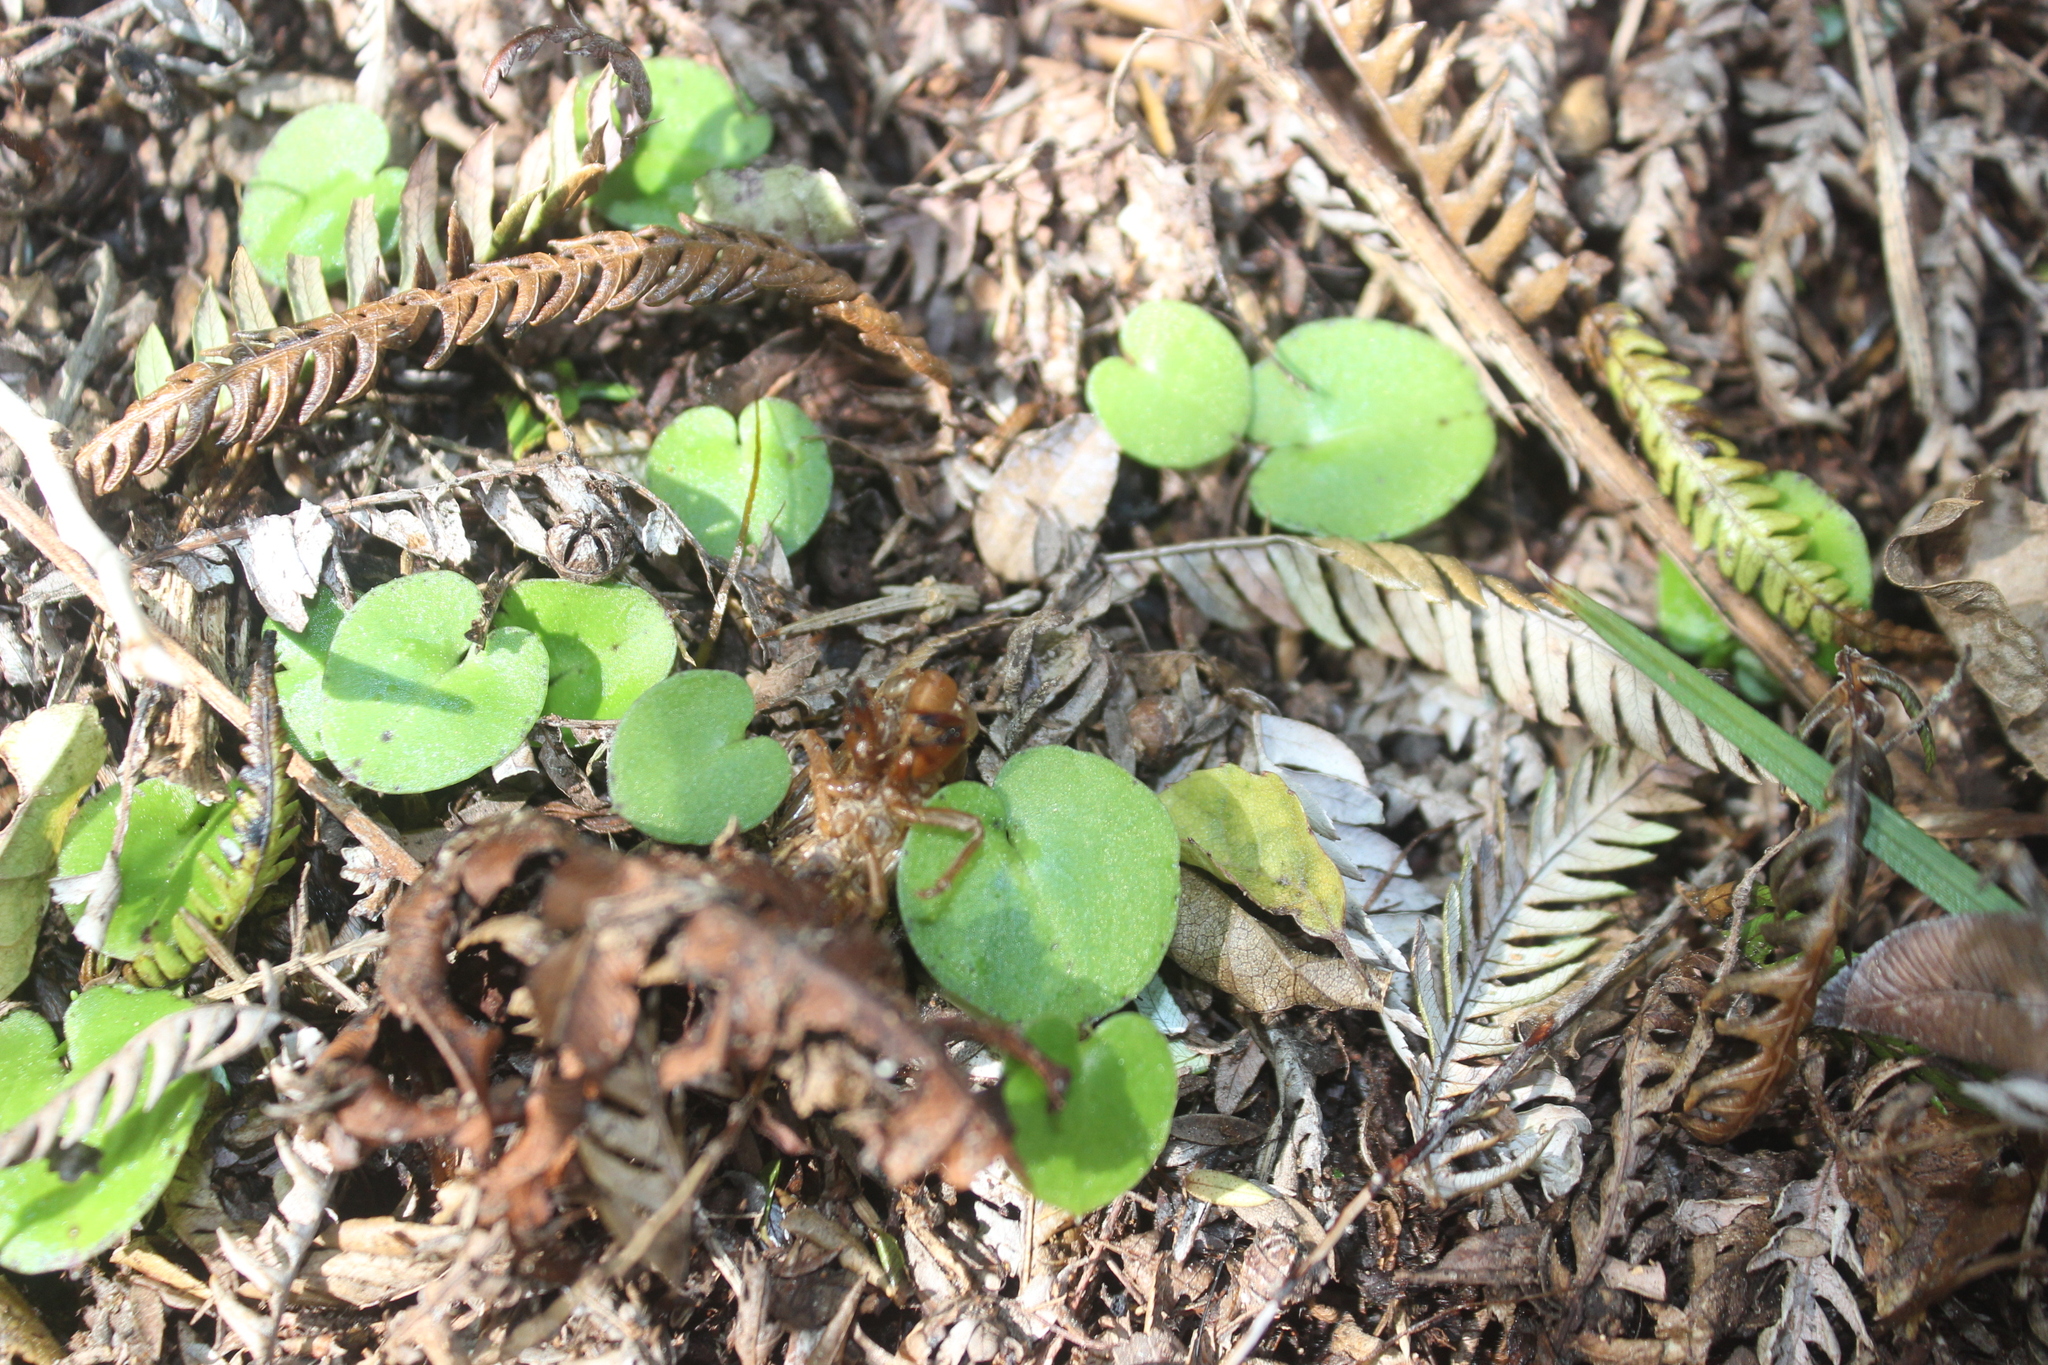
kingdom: Plantae
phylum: Tracheophyta
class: Liliopsida
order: Asparagales
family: Orchidaceae
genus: Corybas
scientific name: Corybas macranthus
